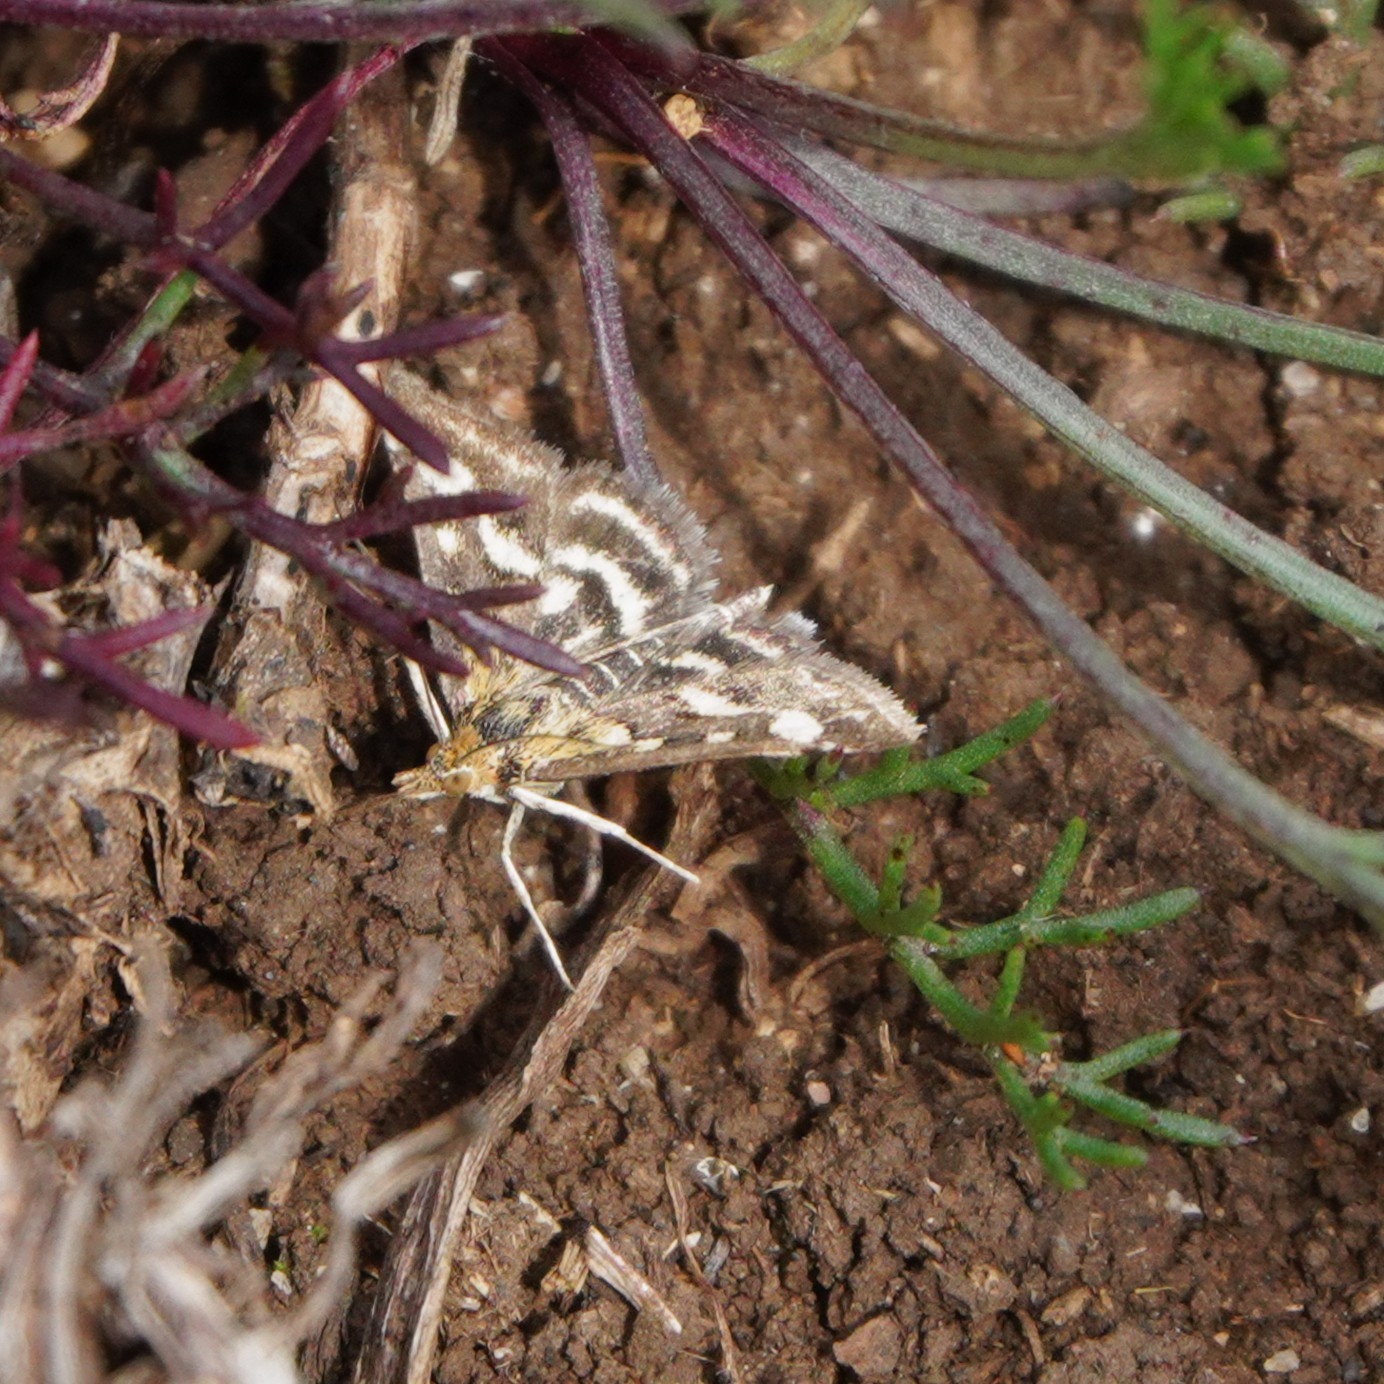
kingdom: Animalia
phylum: Arthropoda
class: Insecta
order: Lepidoptera
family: Crambidae
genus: Pyrausta
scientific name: Pyrausta purpuralis
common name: Common purple & gold
